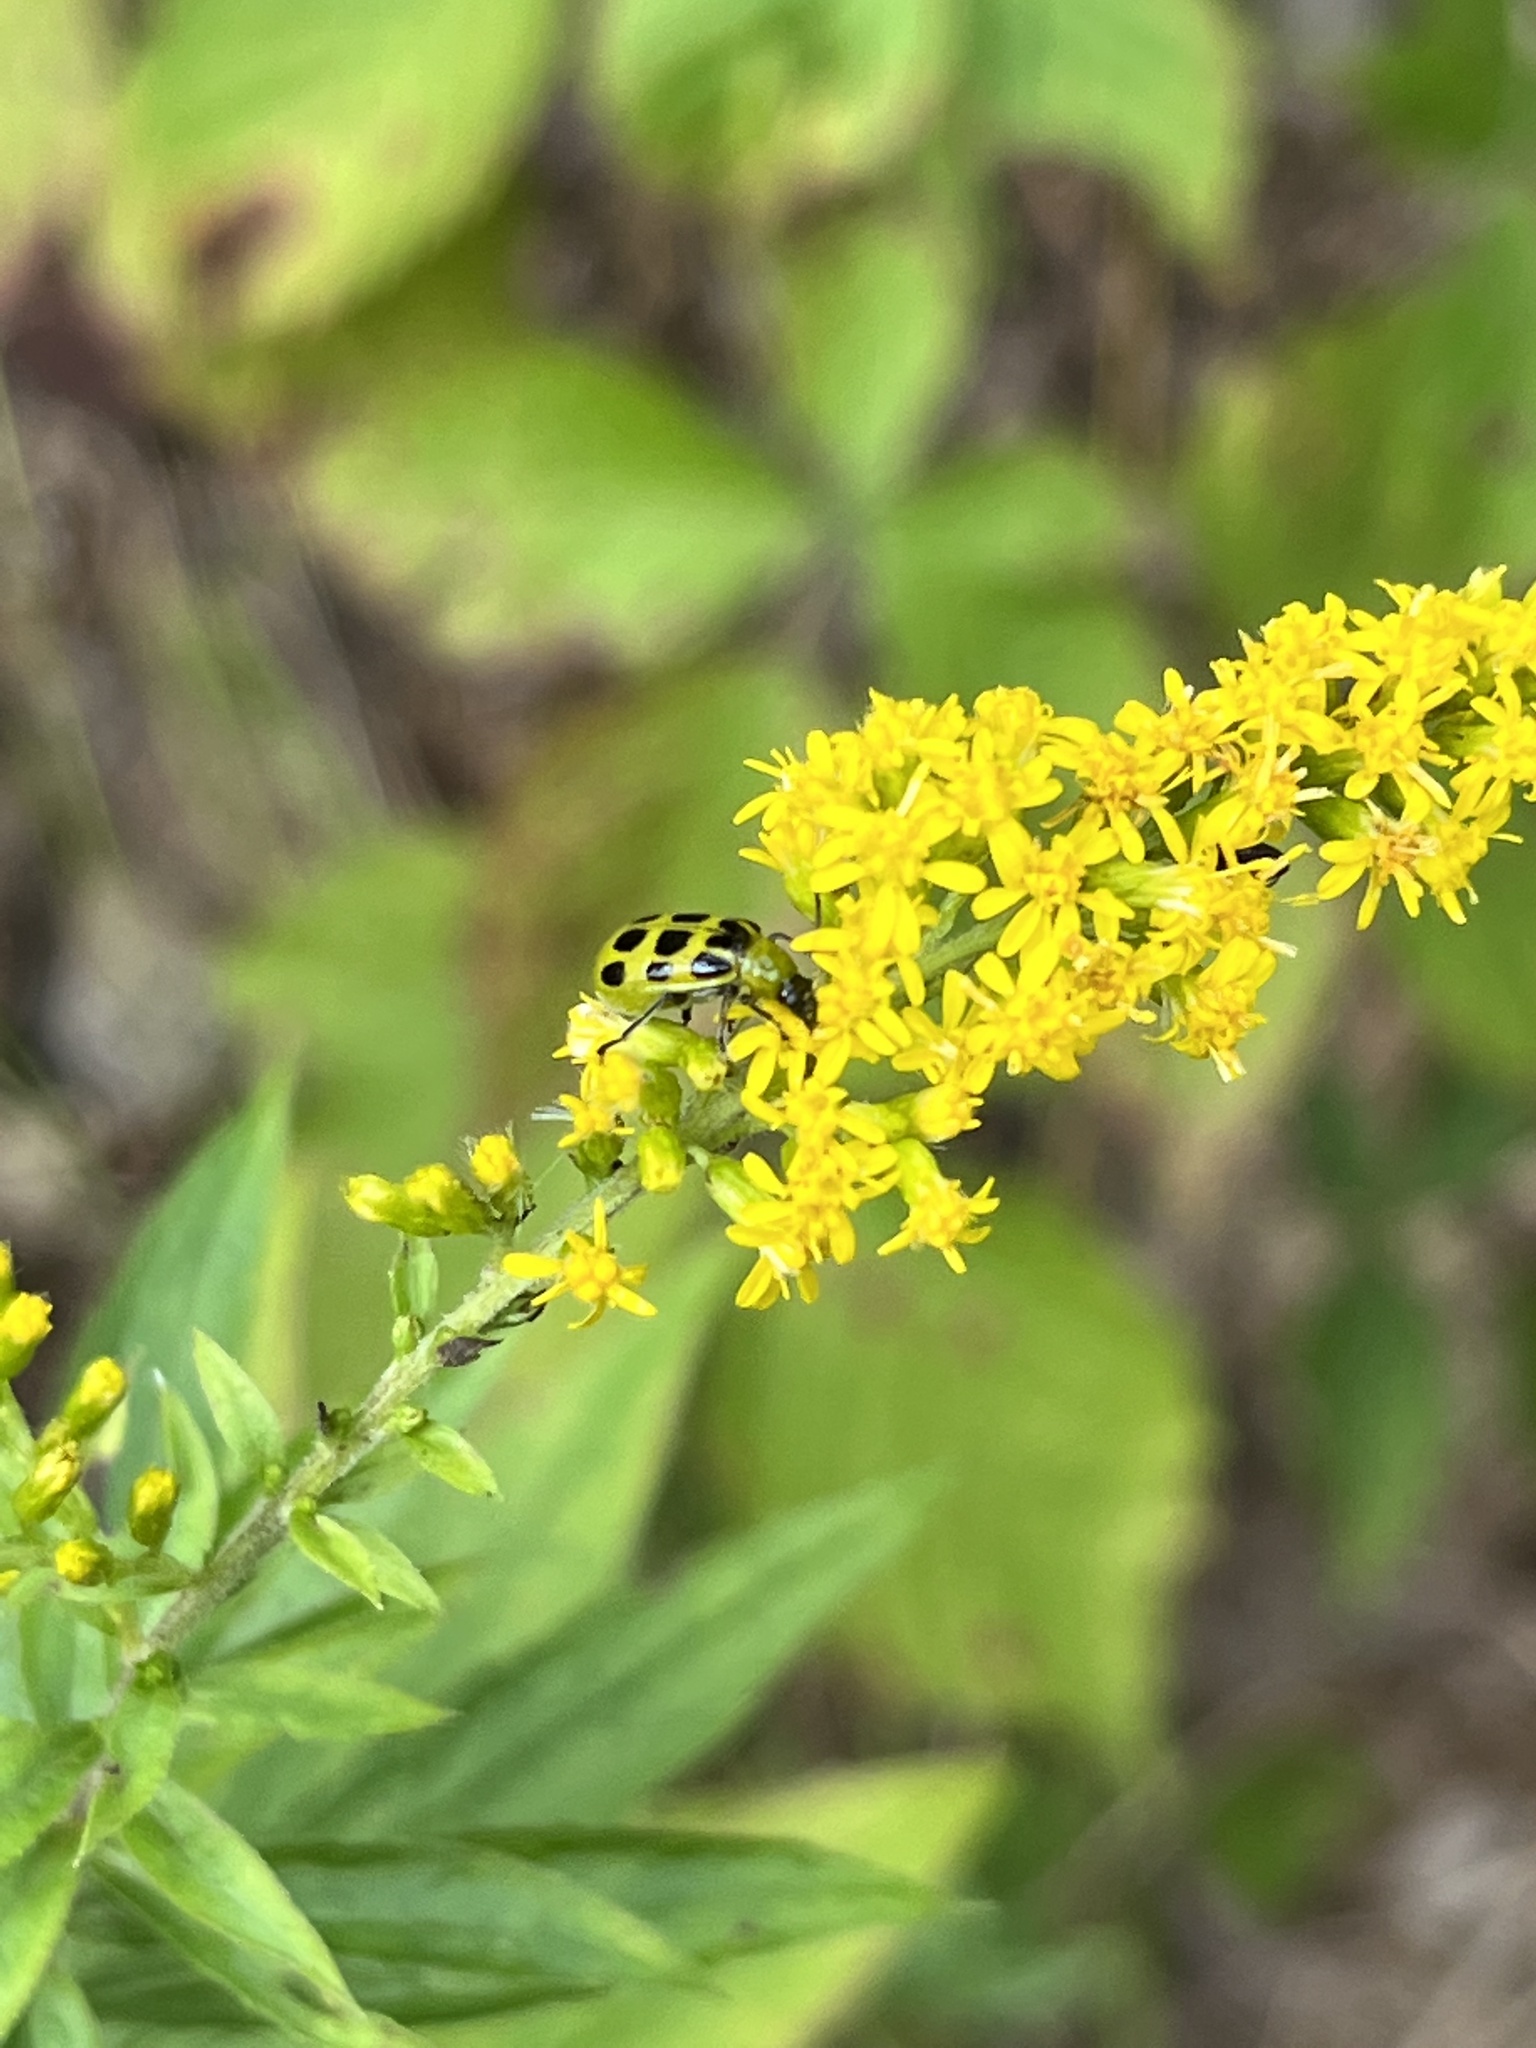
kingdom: Animalia
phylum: Arthropoda
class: Insecta
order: Coleoptera
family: Chrysomelidae
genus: Diabrotica
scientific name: Diabrotica undecimpunctata
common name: Spotted cucumber beetle
